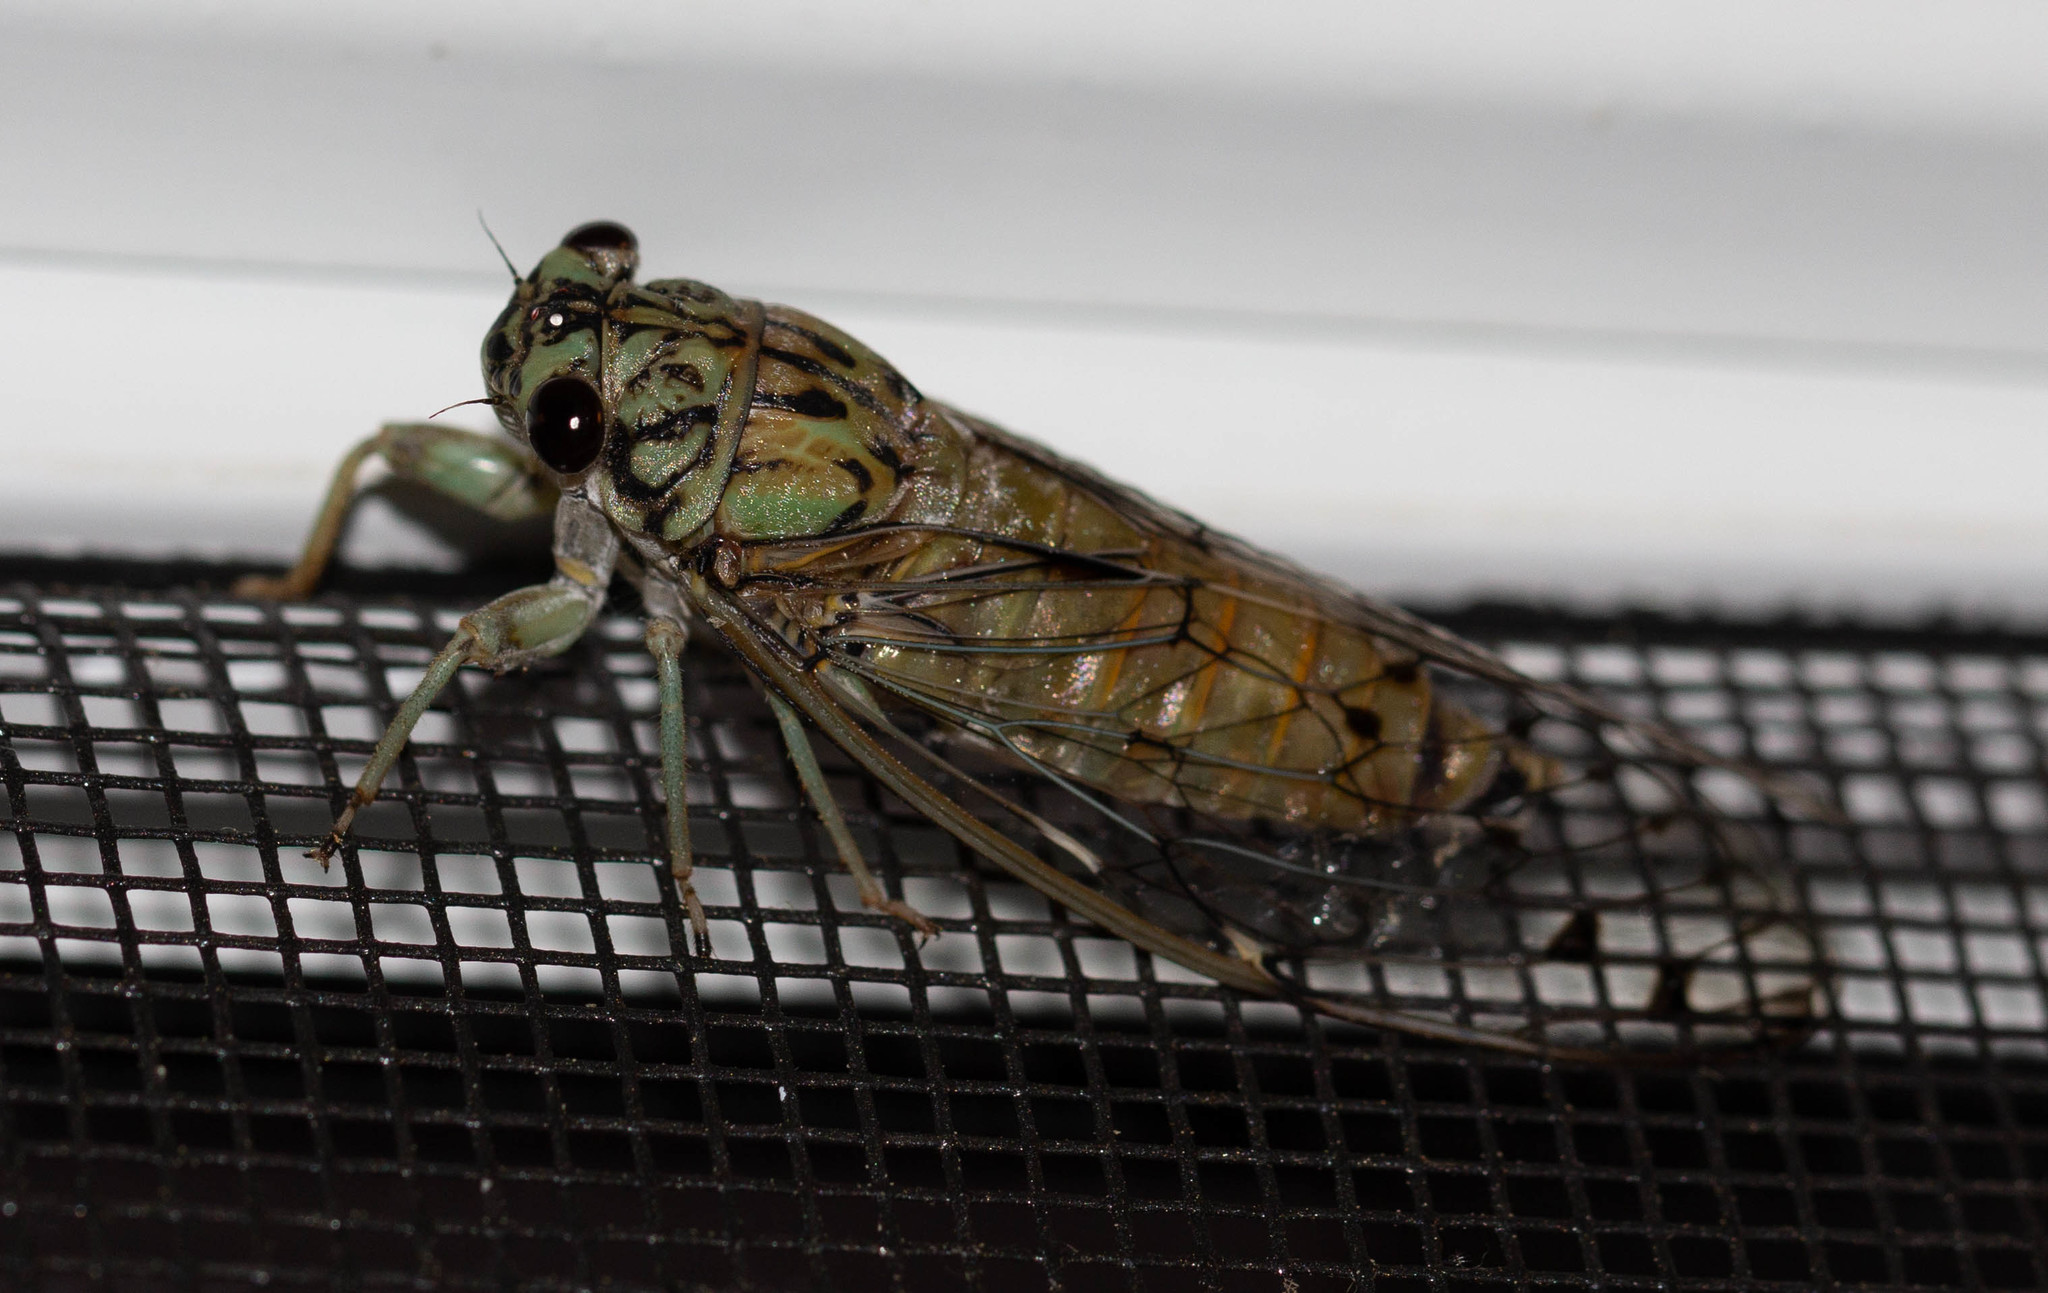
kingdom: Animalia
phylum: Arthropoda
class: Insecta
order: Hemiptera
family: Cicadidae
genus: Neocicada
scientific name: Neocicada hieroglyphica
